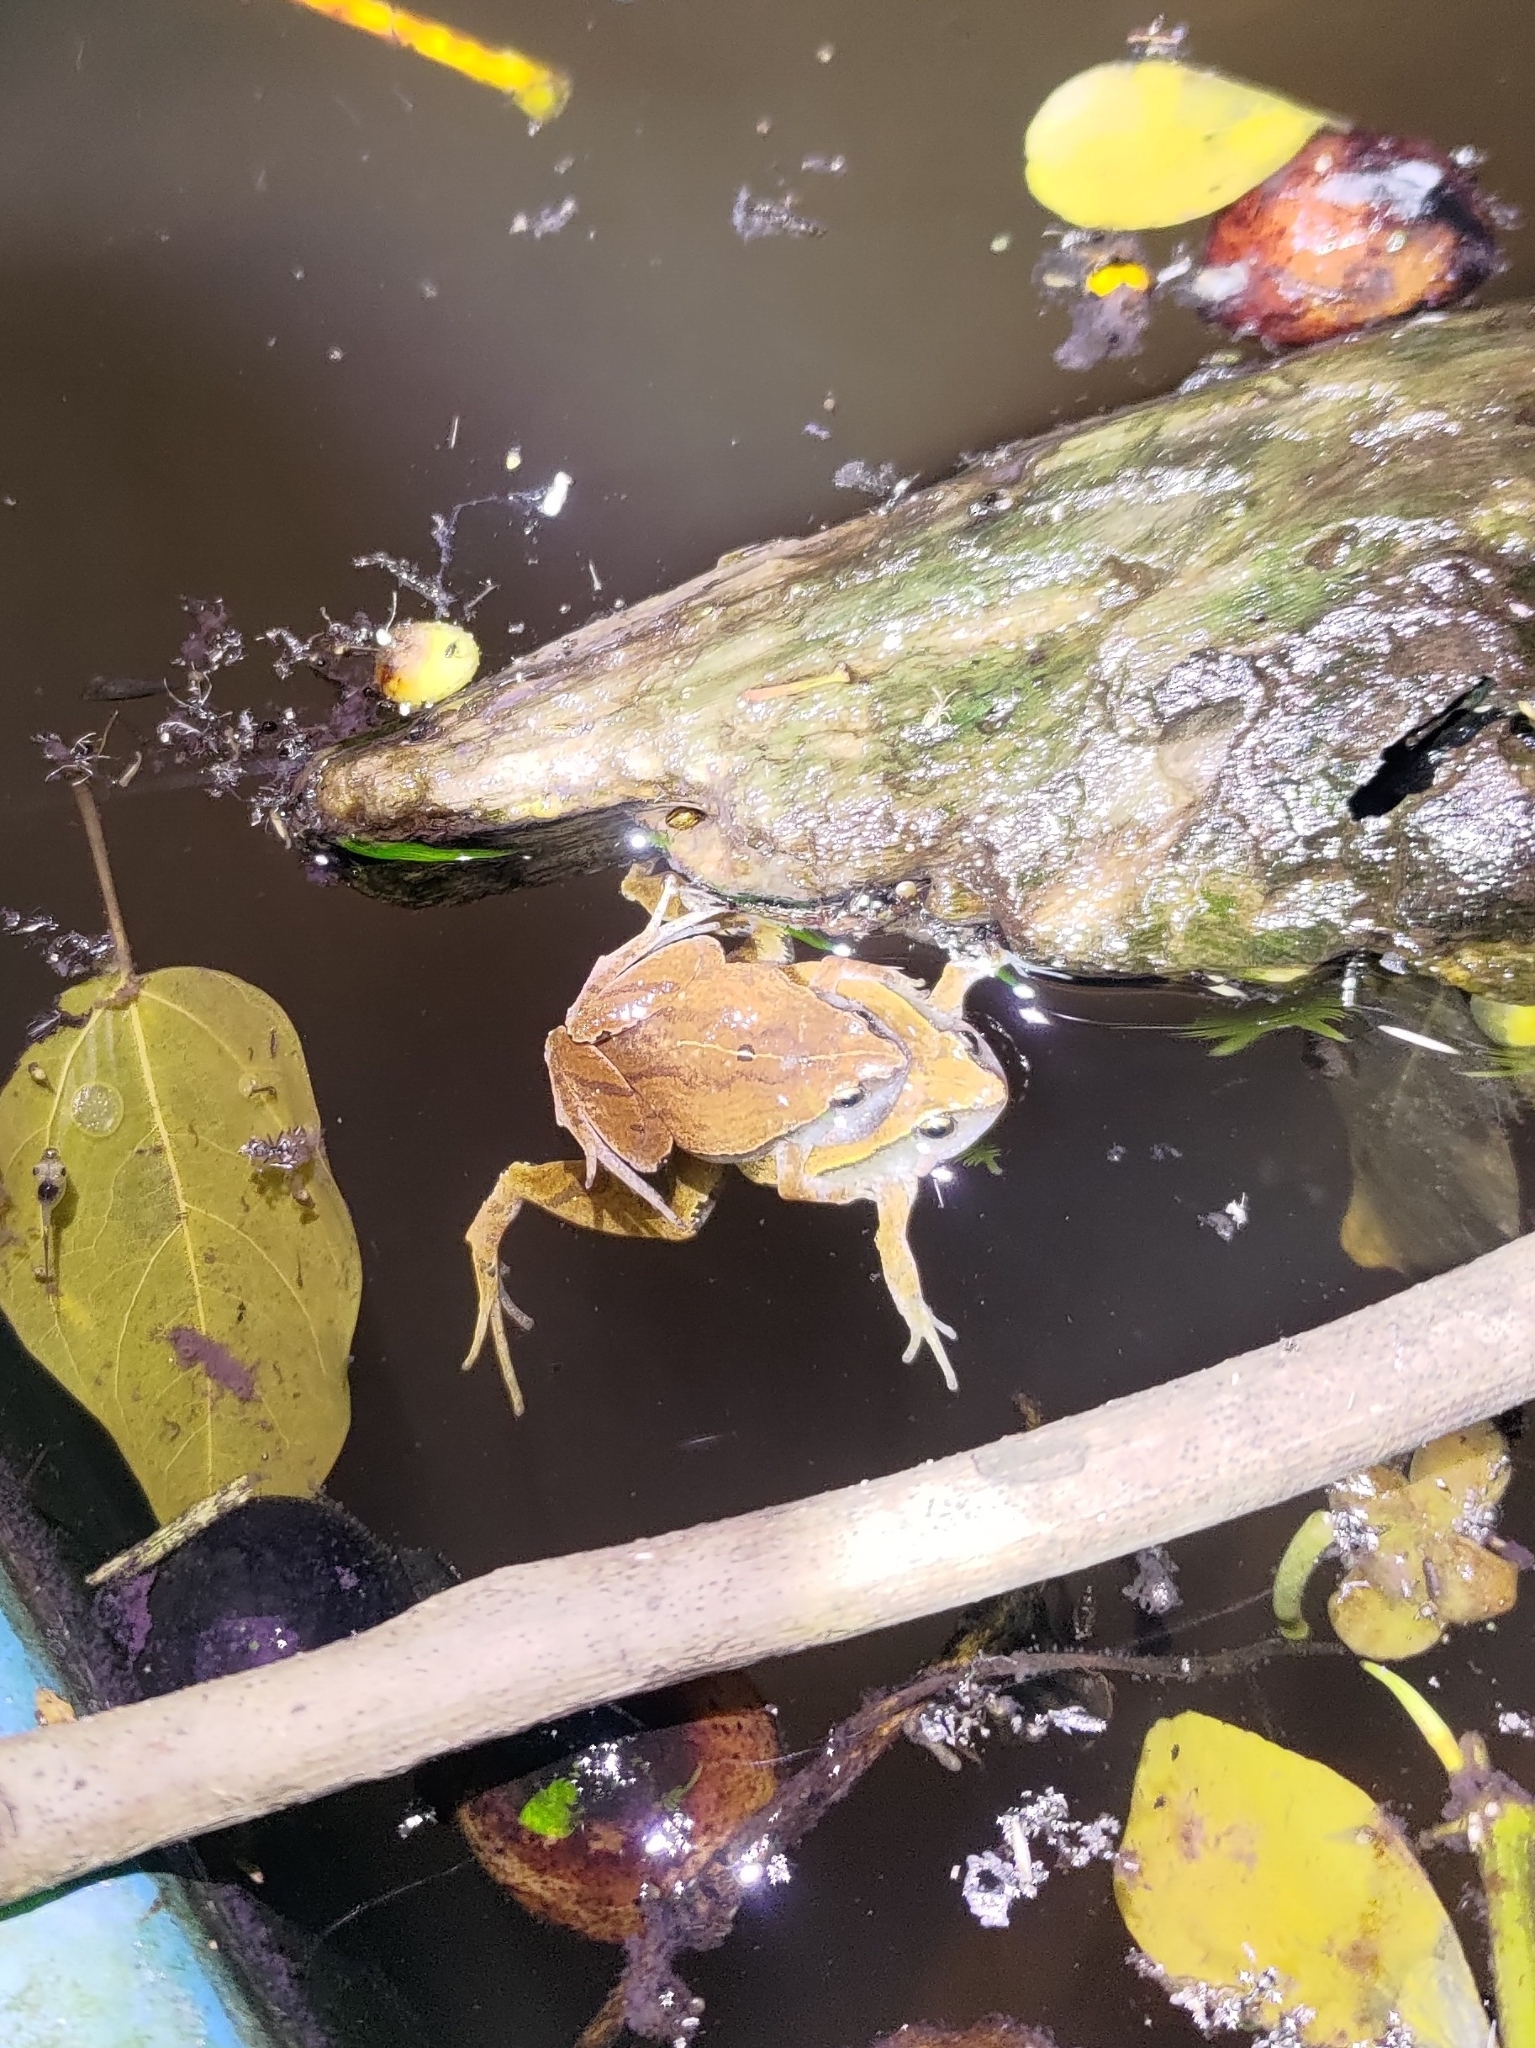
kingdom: Animalia
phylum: Chordata
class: Amphibia
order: Anura
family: Microhylidae
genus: Microhyla
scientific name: Microhyla heymonsi
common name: Taiwan rice frog,dark sided chorus frog
